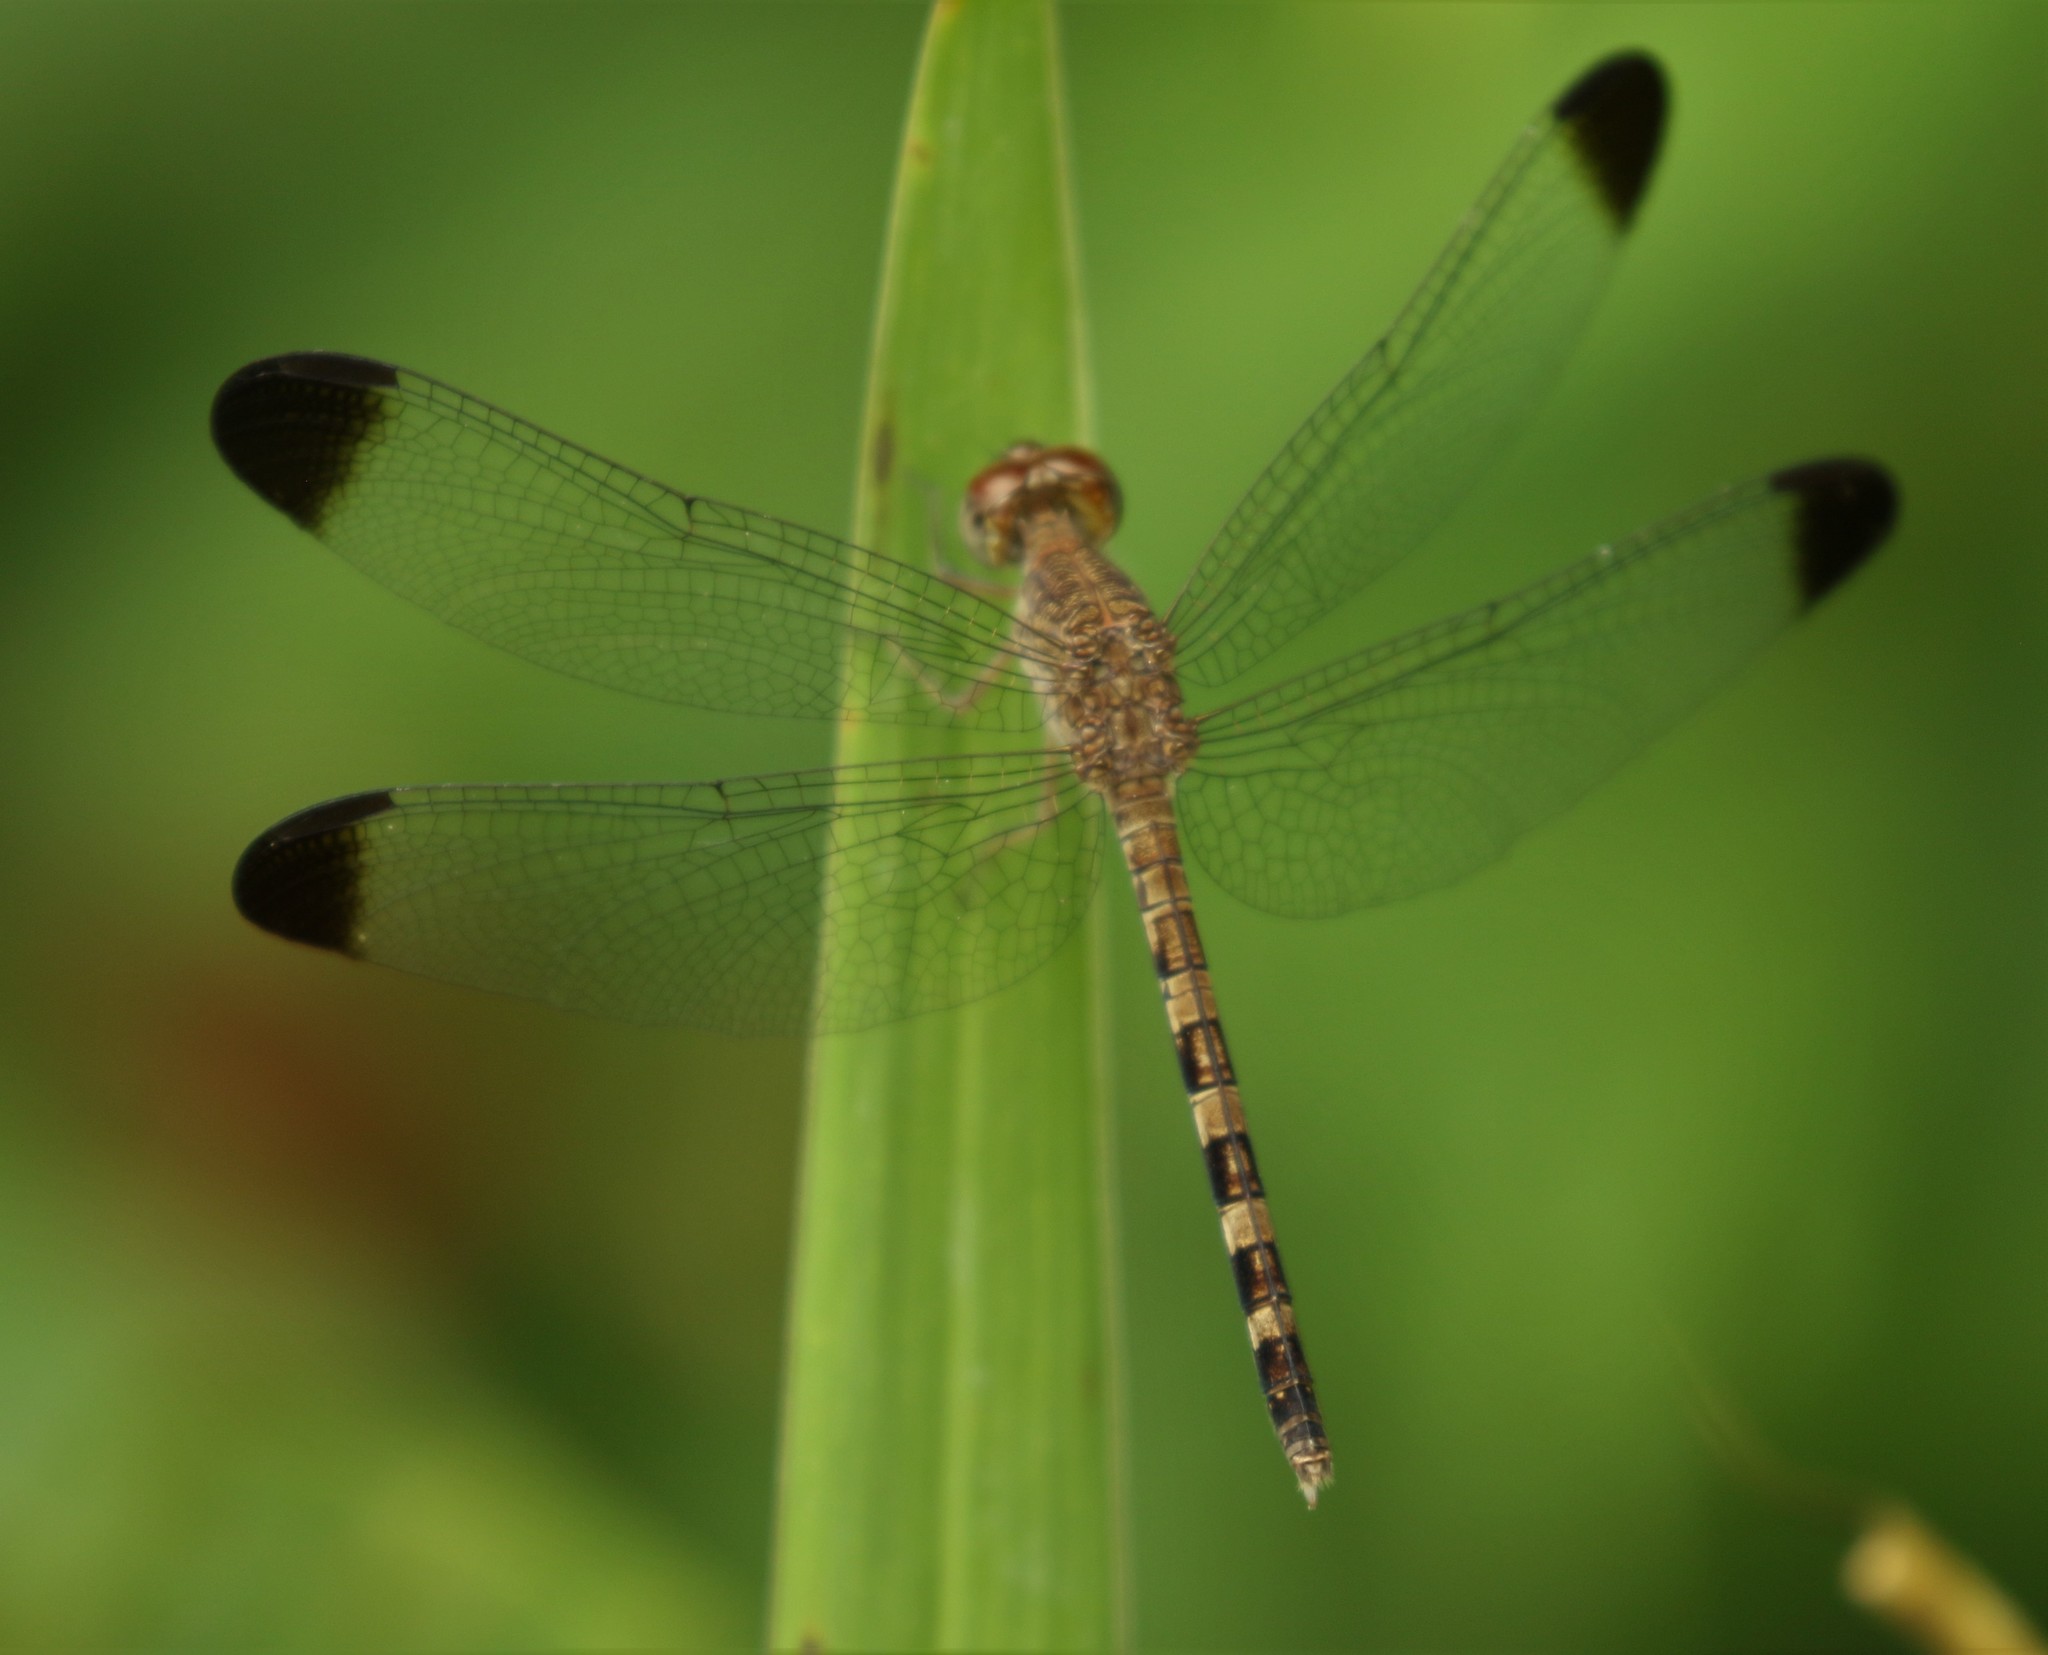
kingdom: Animalia
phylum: Arthropoda
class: Insecta
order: Odonata
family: Libellulidae
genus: Uracis
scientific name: Uracis imbuta
